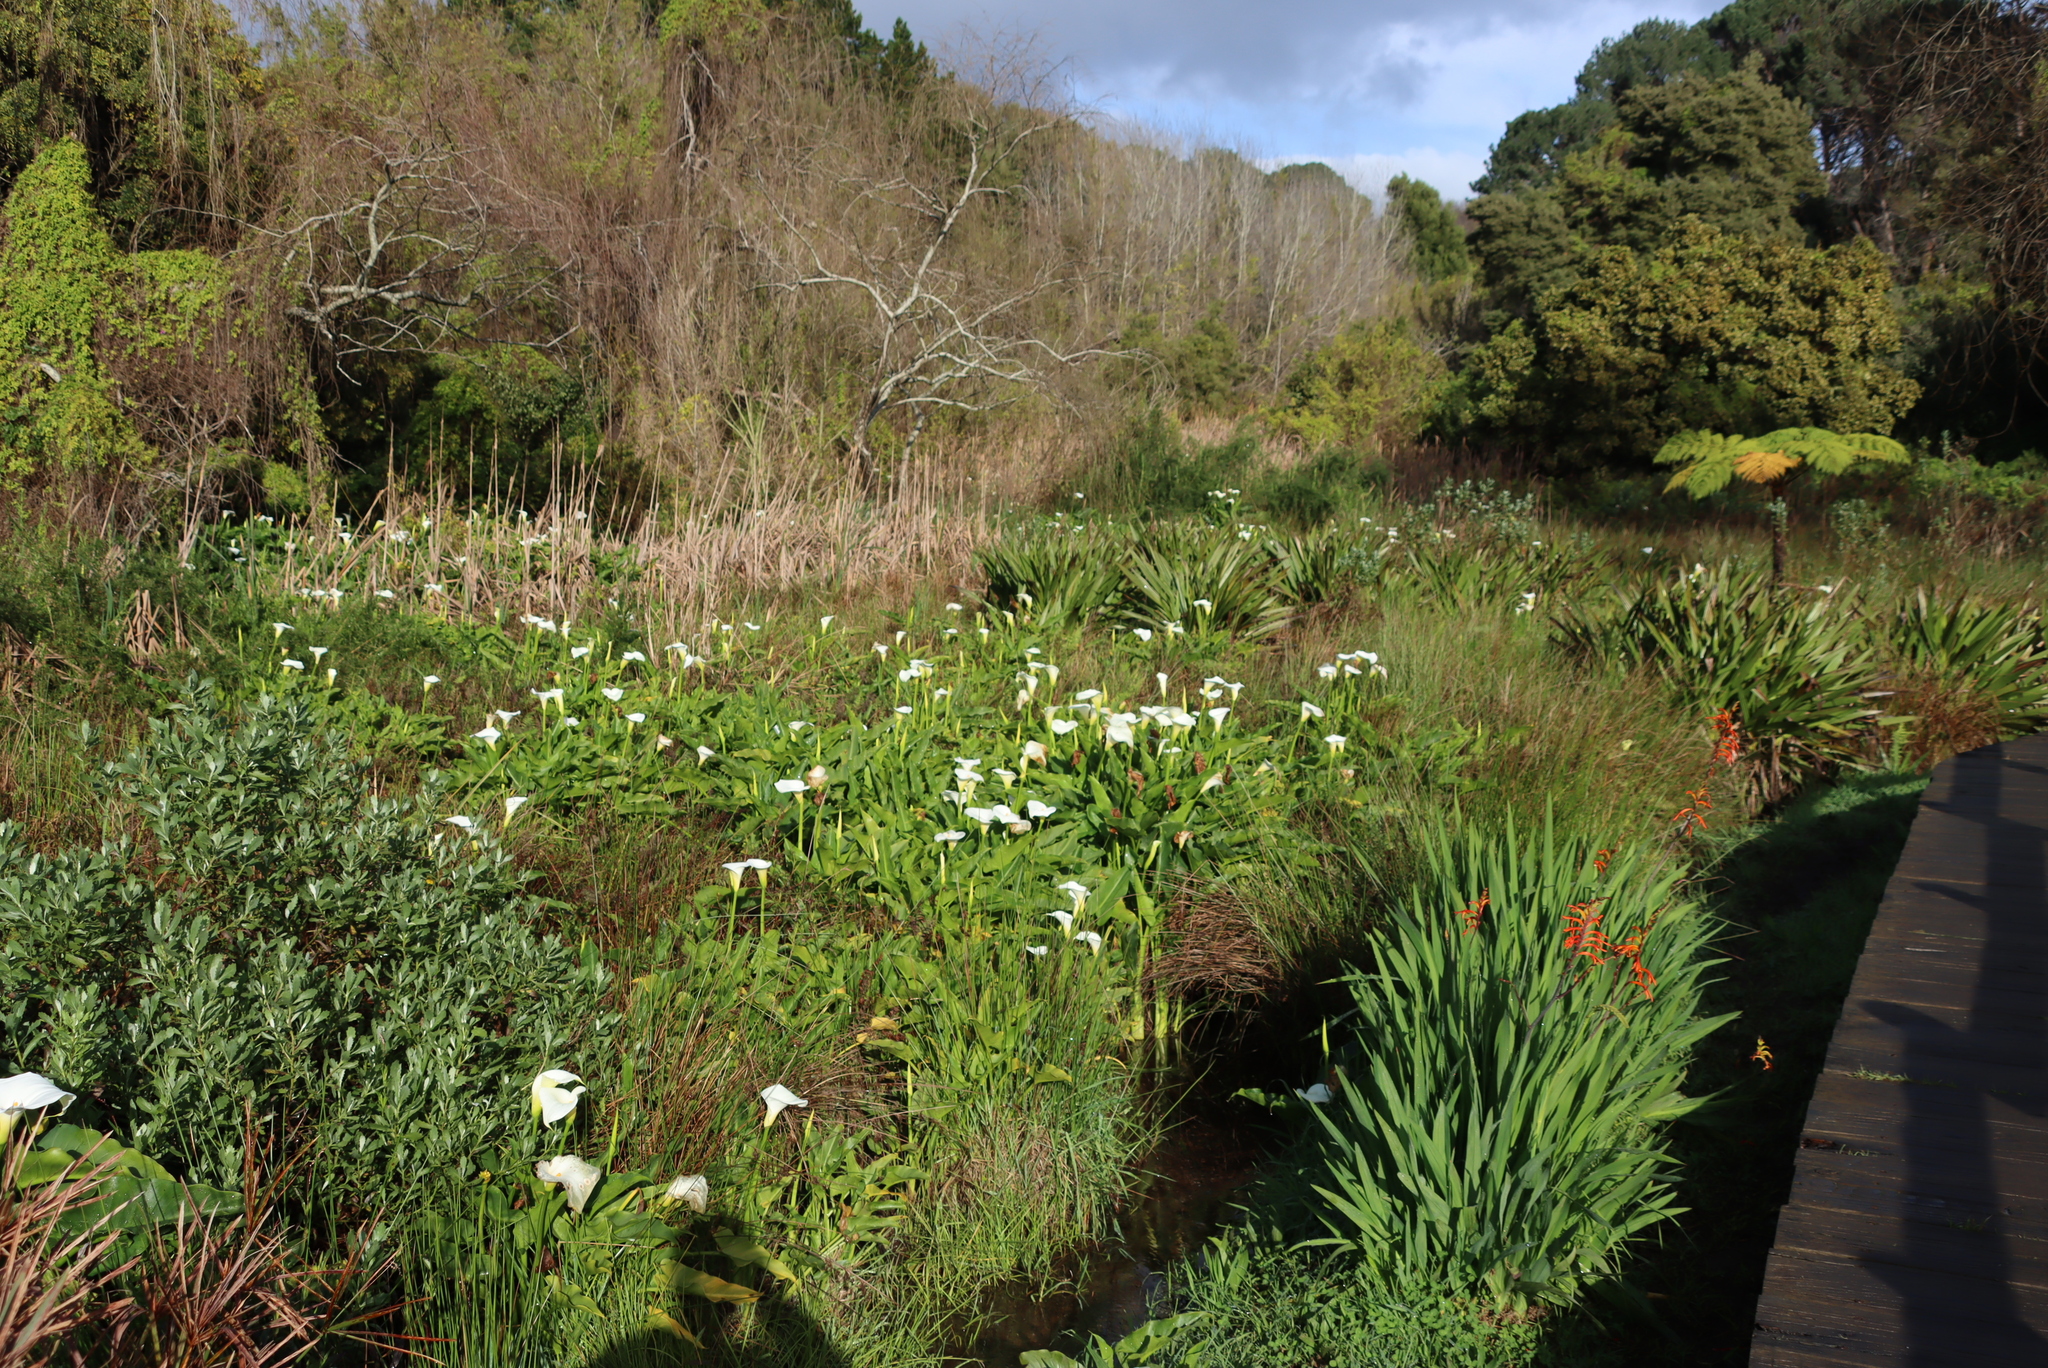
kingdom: Plantae
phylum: Tracheophyta
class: Liliopsida
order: Alismatales
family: Araceae
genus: Zantedeschia
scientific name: Zantedeschia aethiopica
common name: Altar-lily
